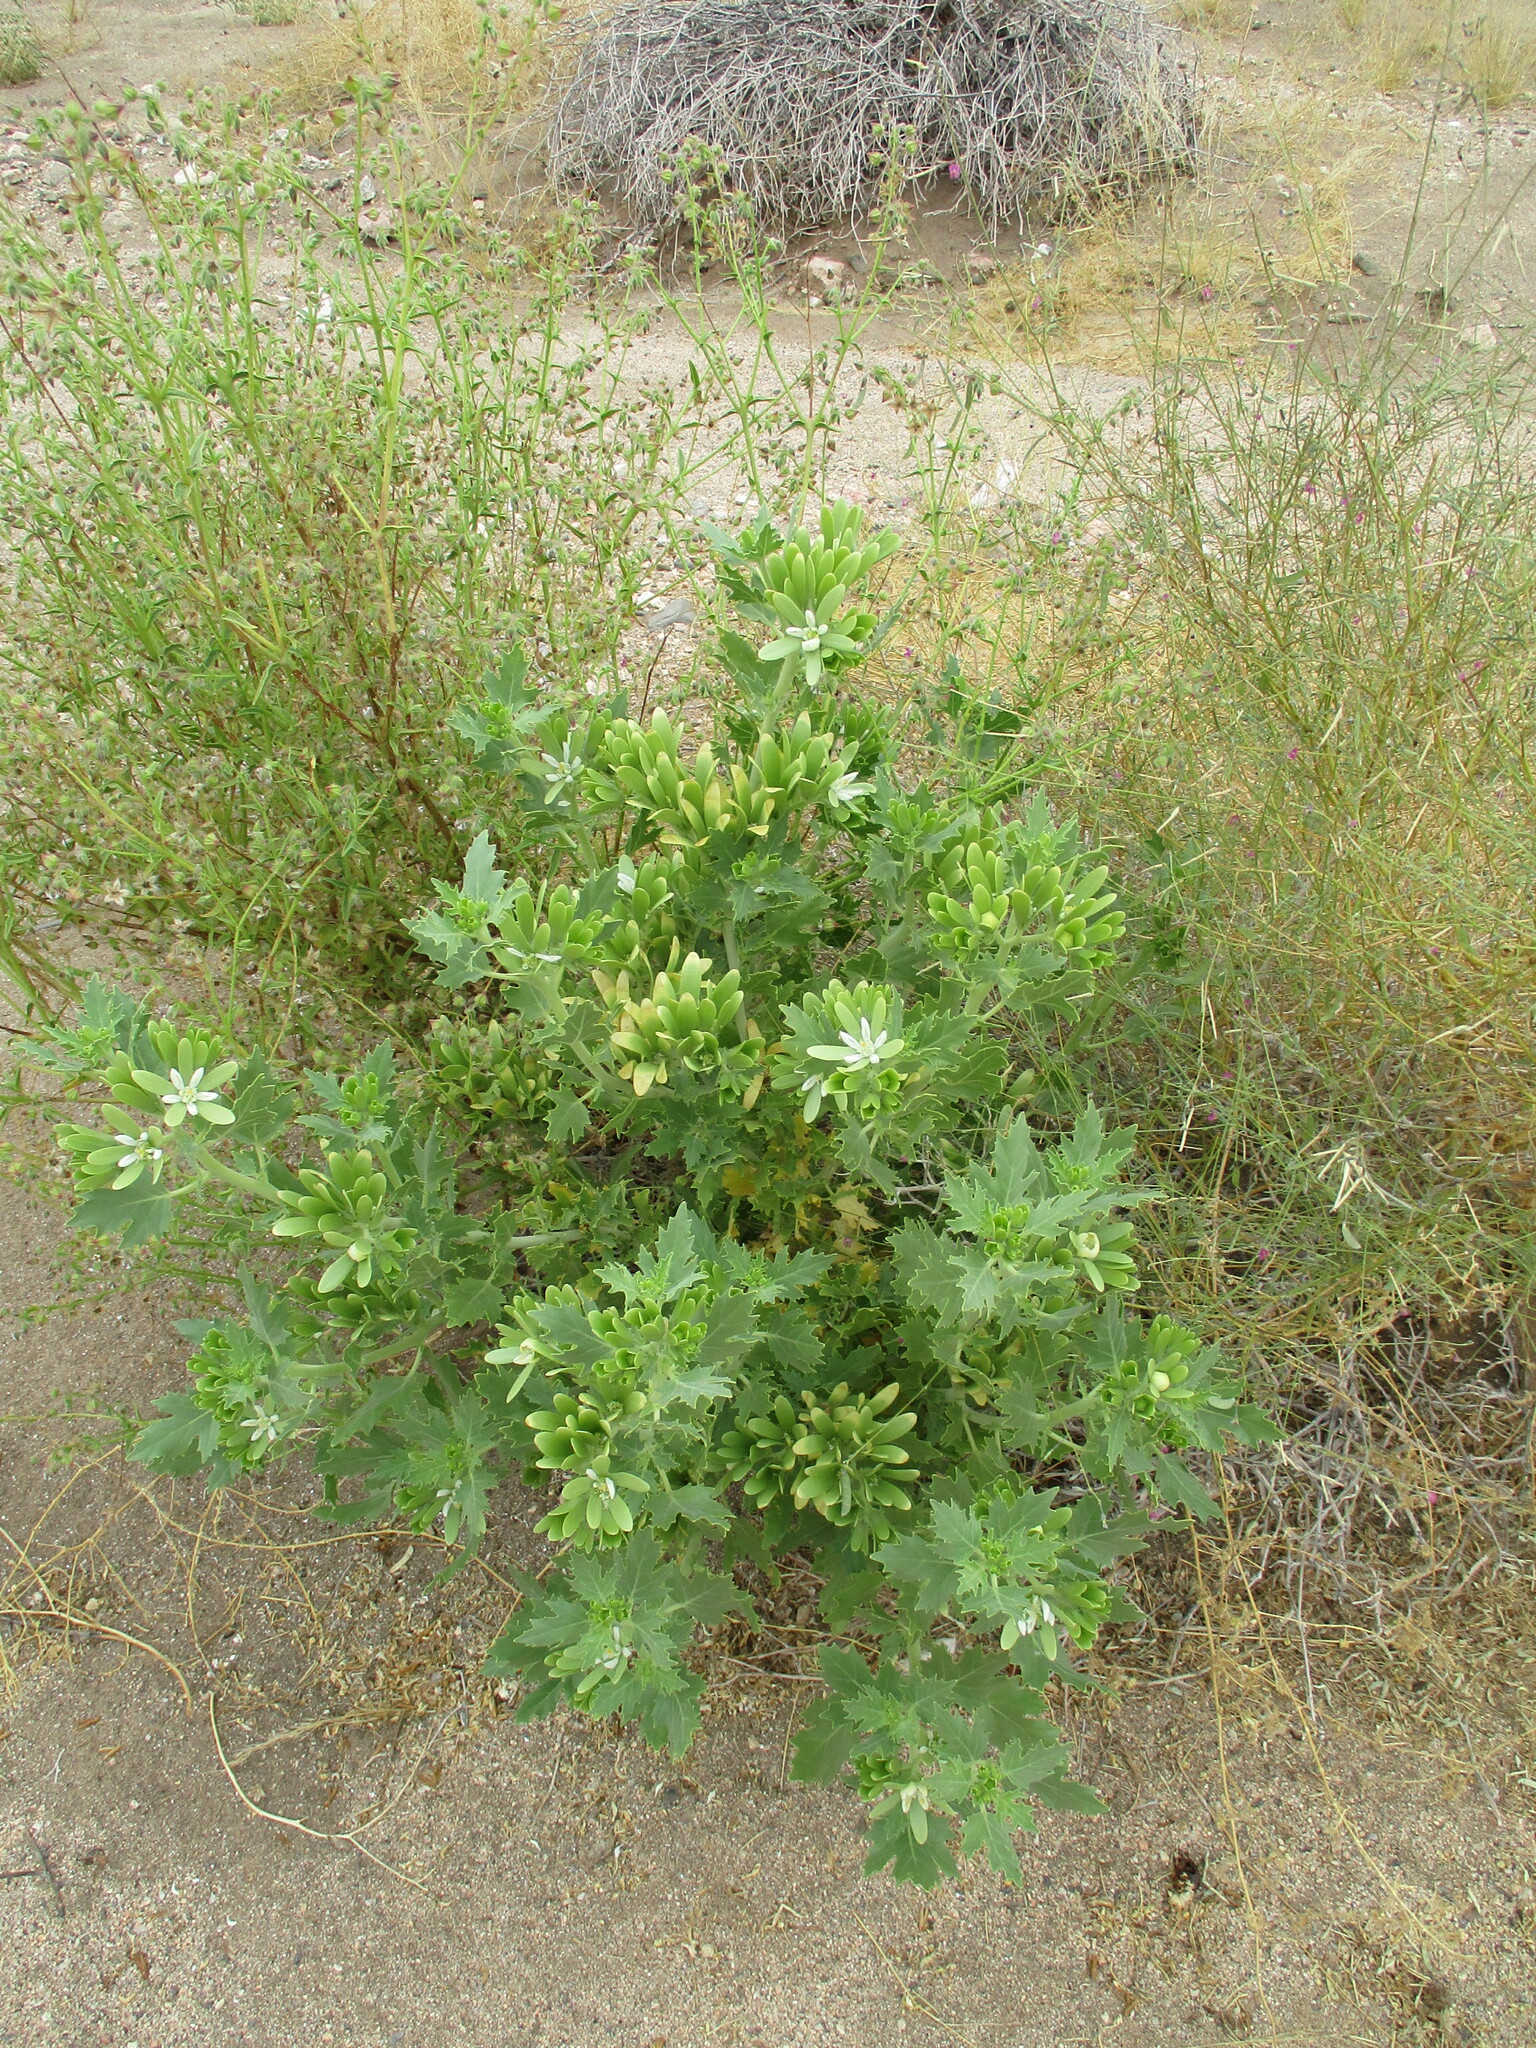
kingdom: Plantae
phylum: Tracheophyta
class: Magnoliopsida
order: Cornales
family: Loasaceae
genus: Kissenia
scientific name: Kissenia capensis
